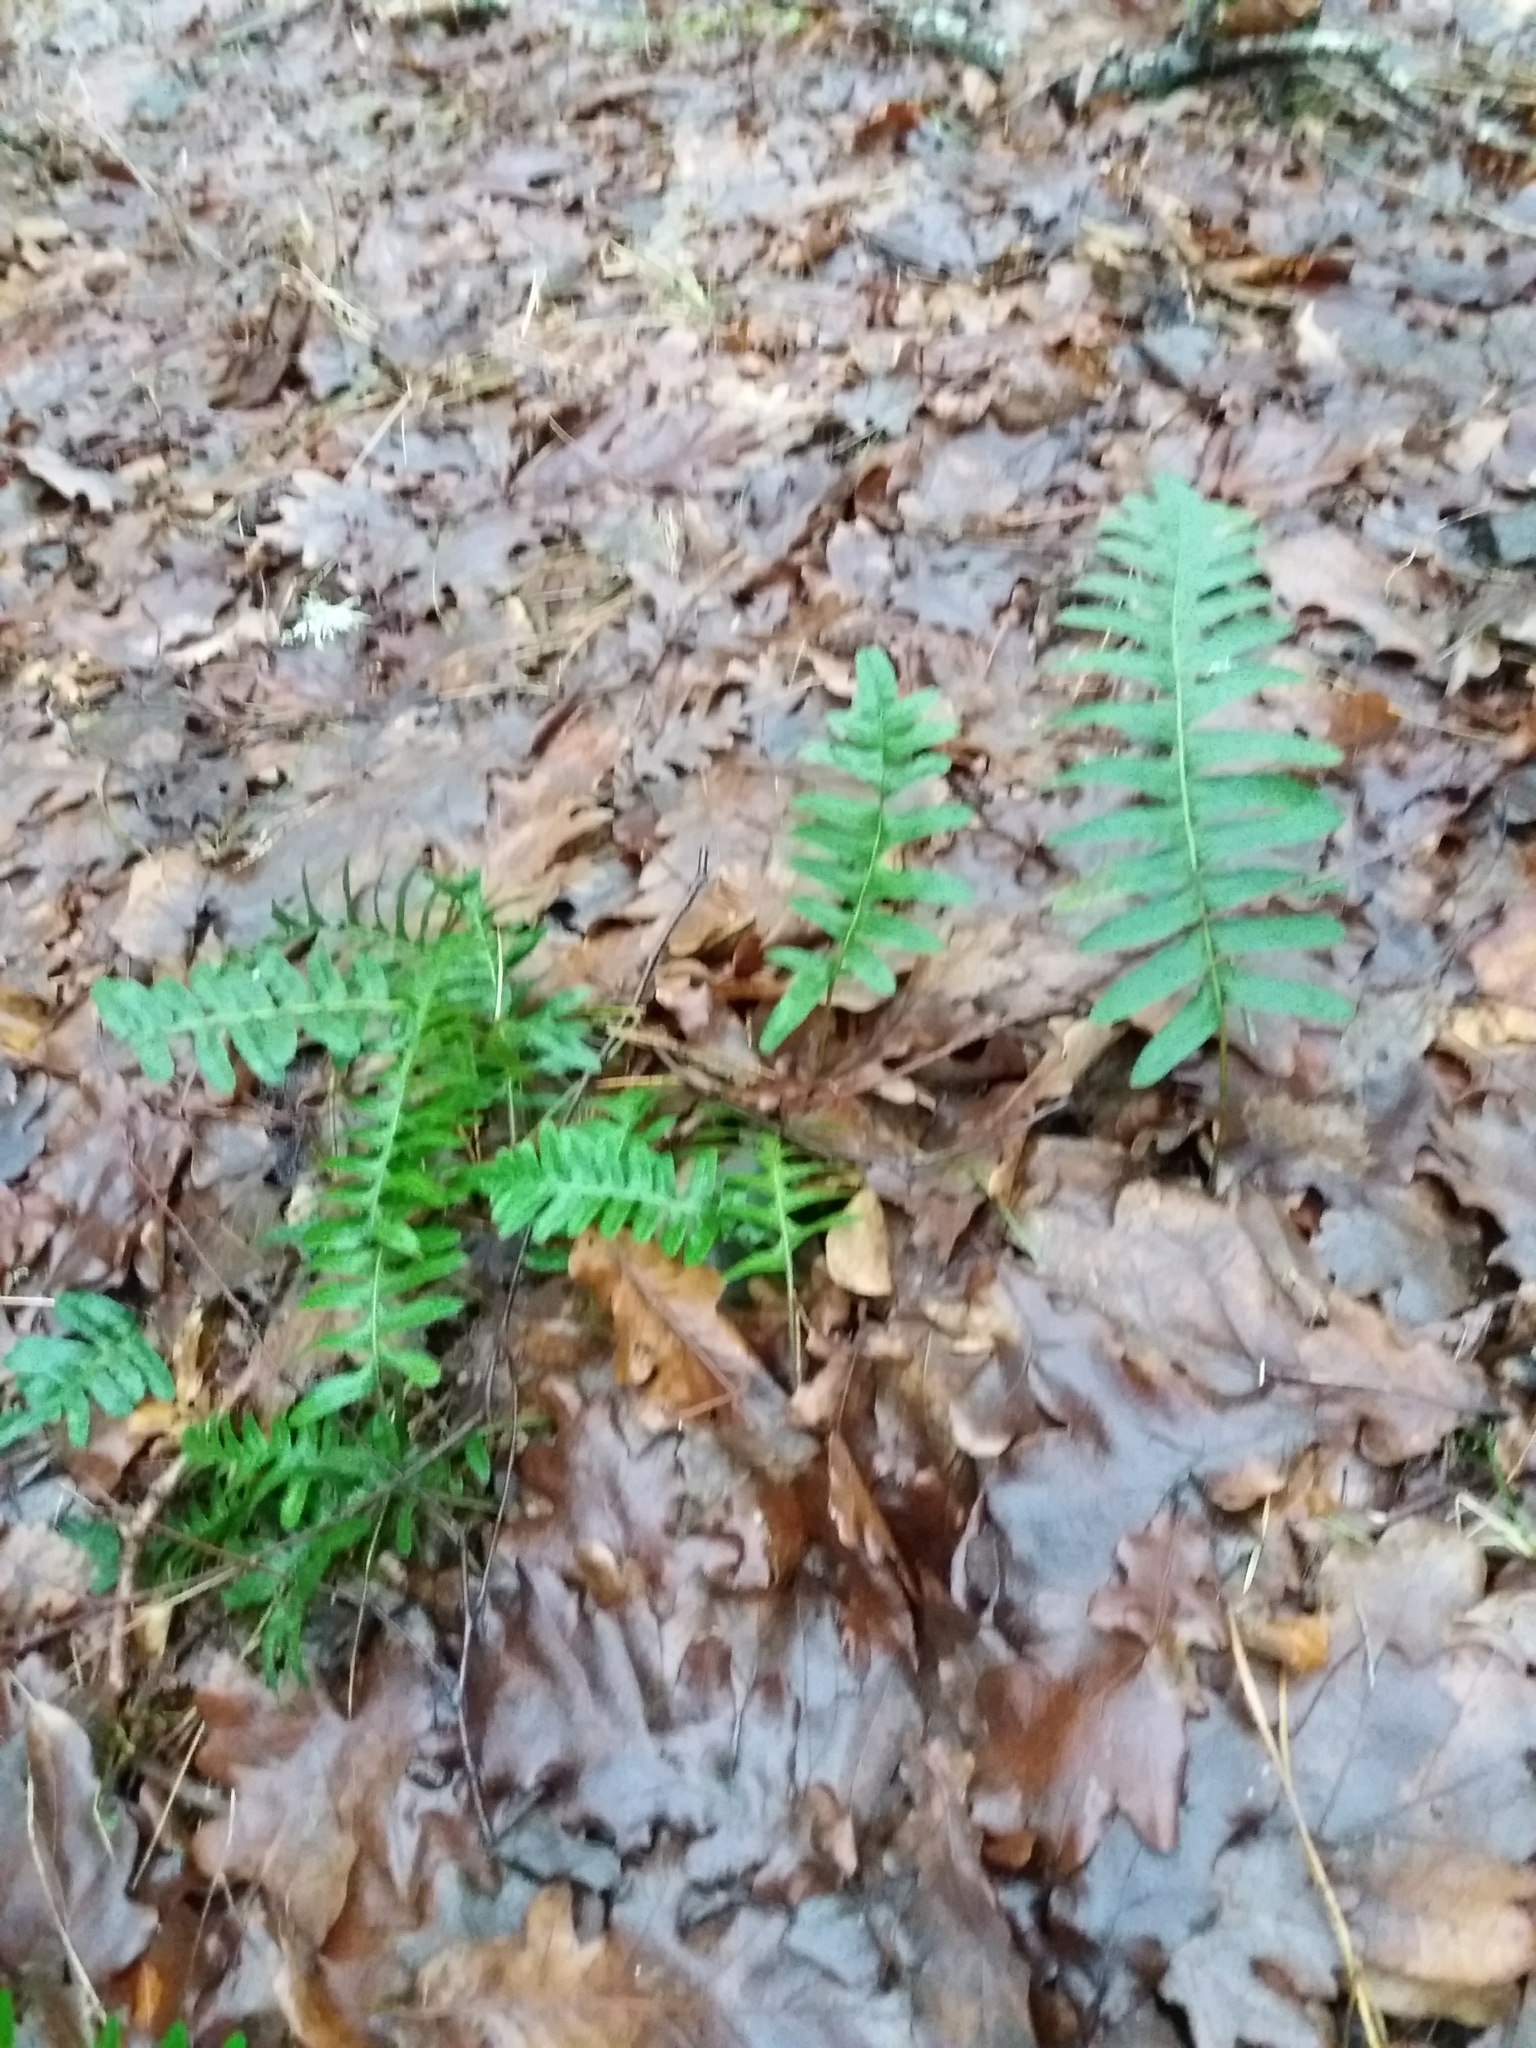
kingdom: Plantae
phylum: Tracheophyta
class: Polypodiopsida
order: Polypodiales
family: Polypodiaceae
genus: Polypodium
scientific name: Polypodium vulgare
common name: Common polypody
